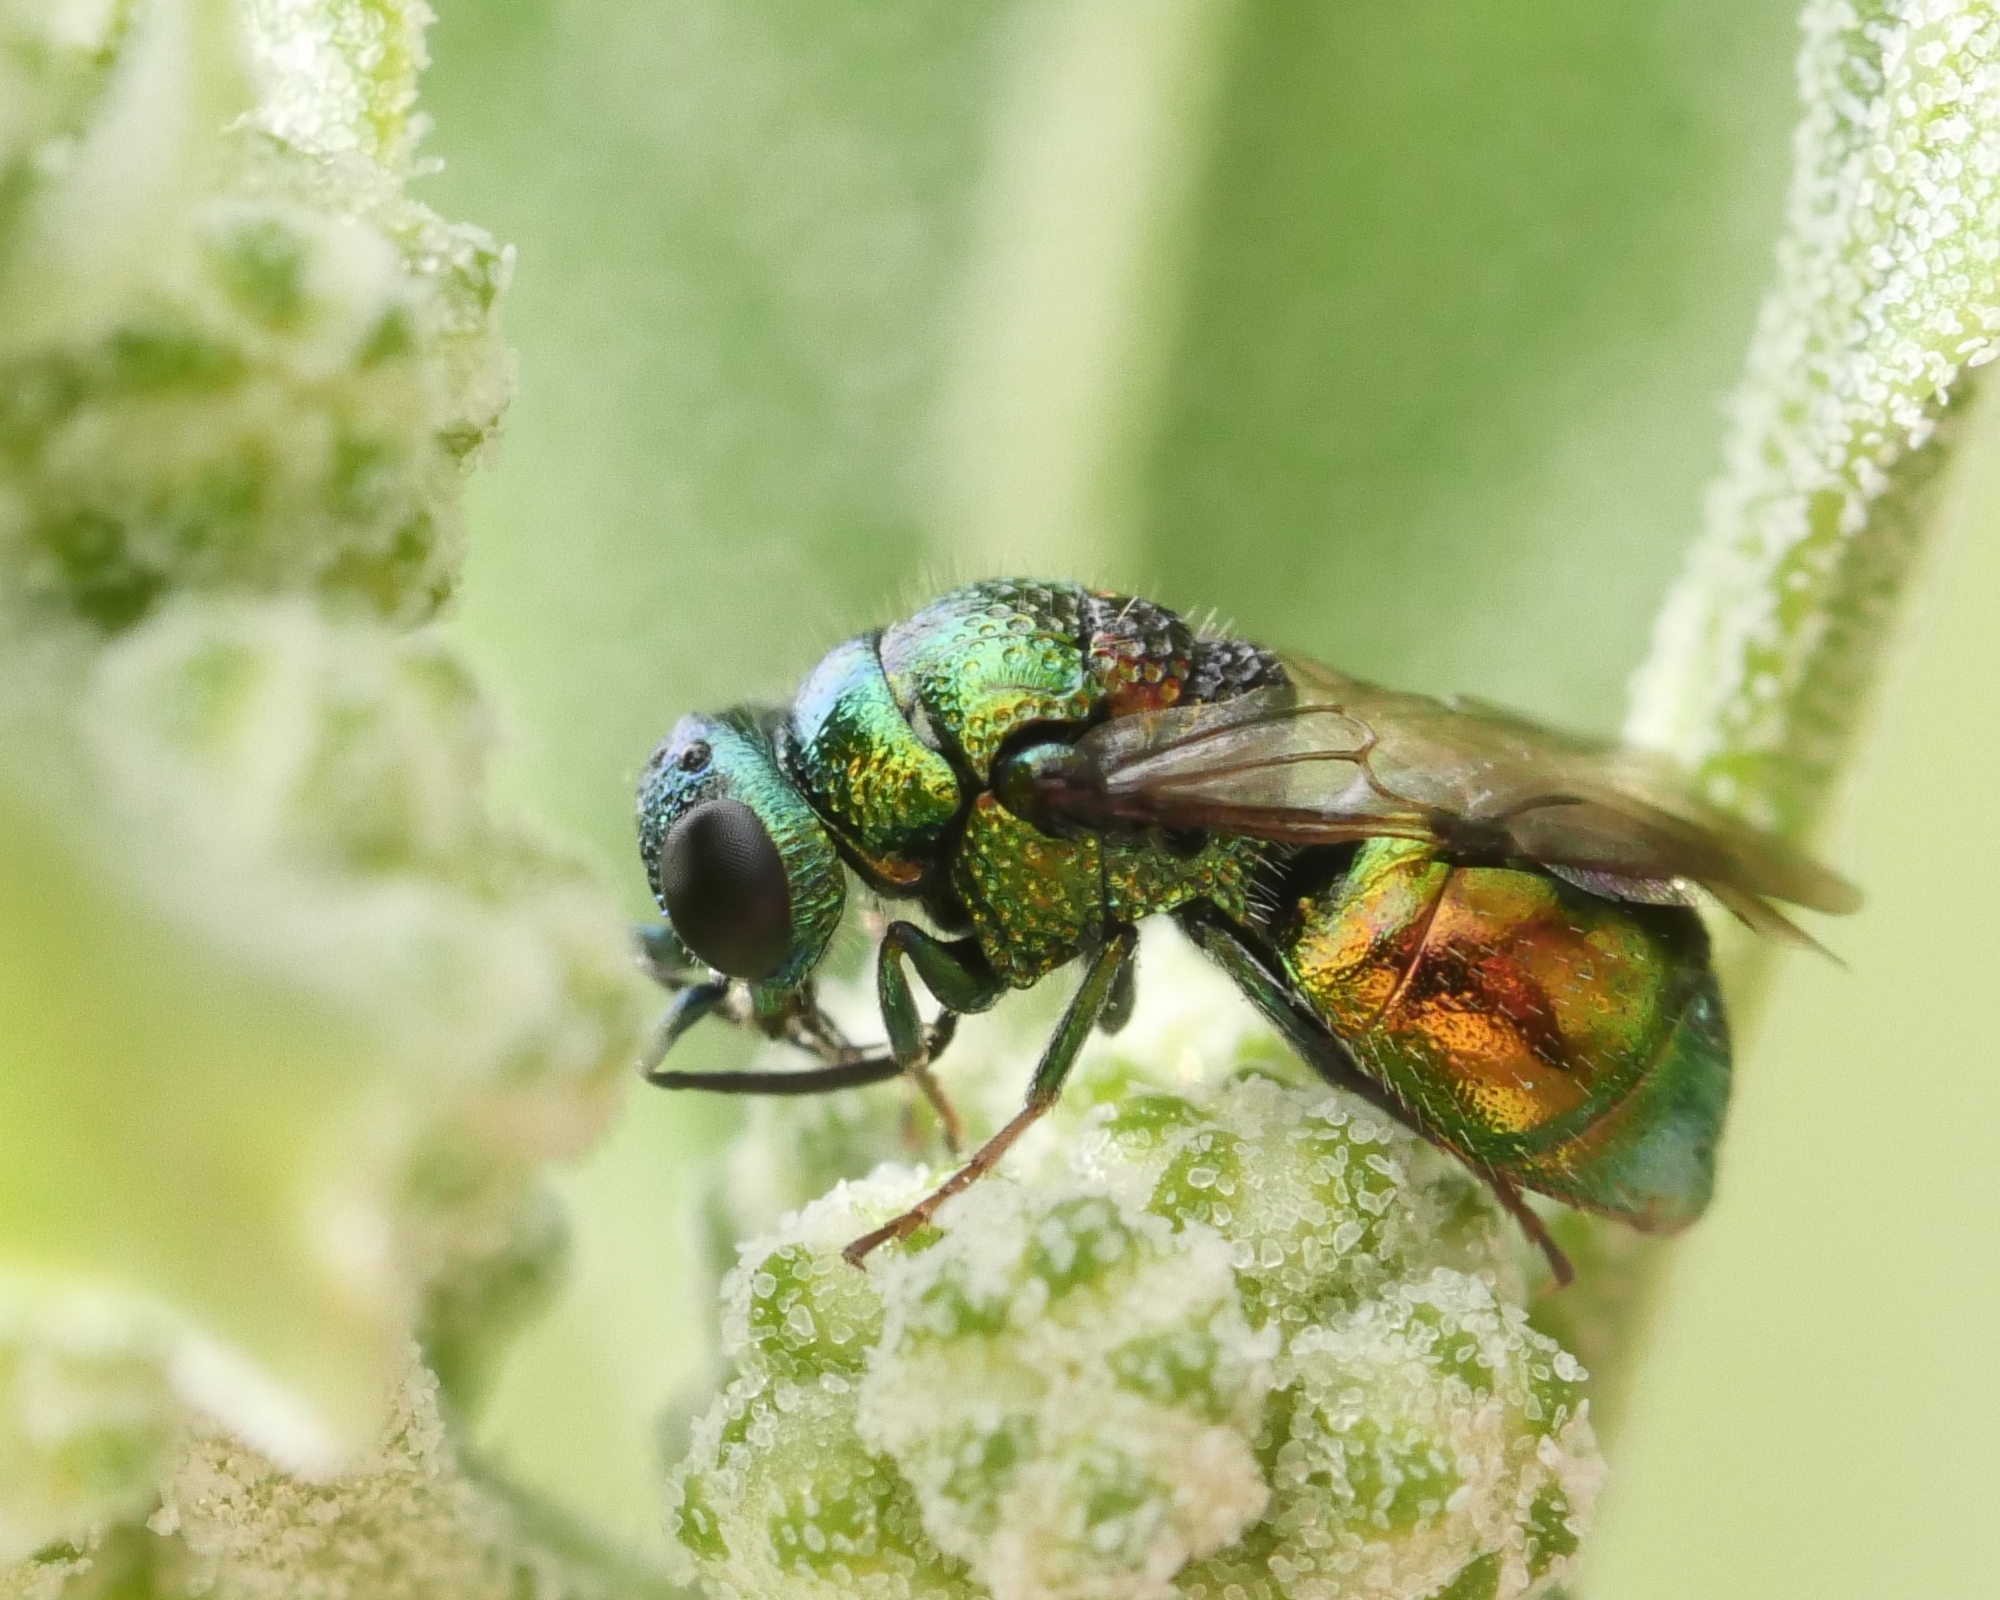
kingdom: Animalia
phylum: Arthropoda
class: Insecta
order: Hymenoptera
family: Chrysididae
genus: Pseudomalus
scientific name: Pseudomalus pusillus
